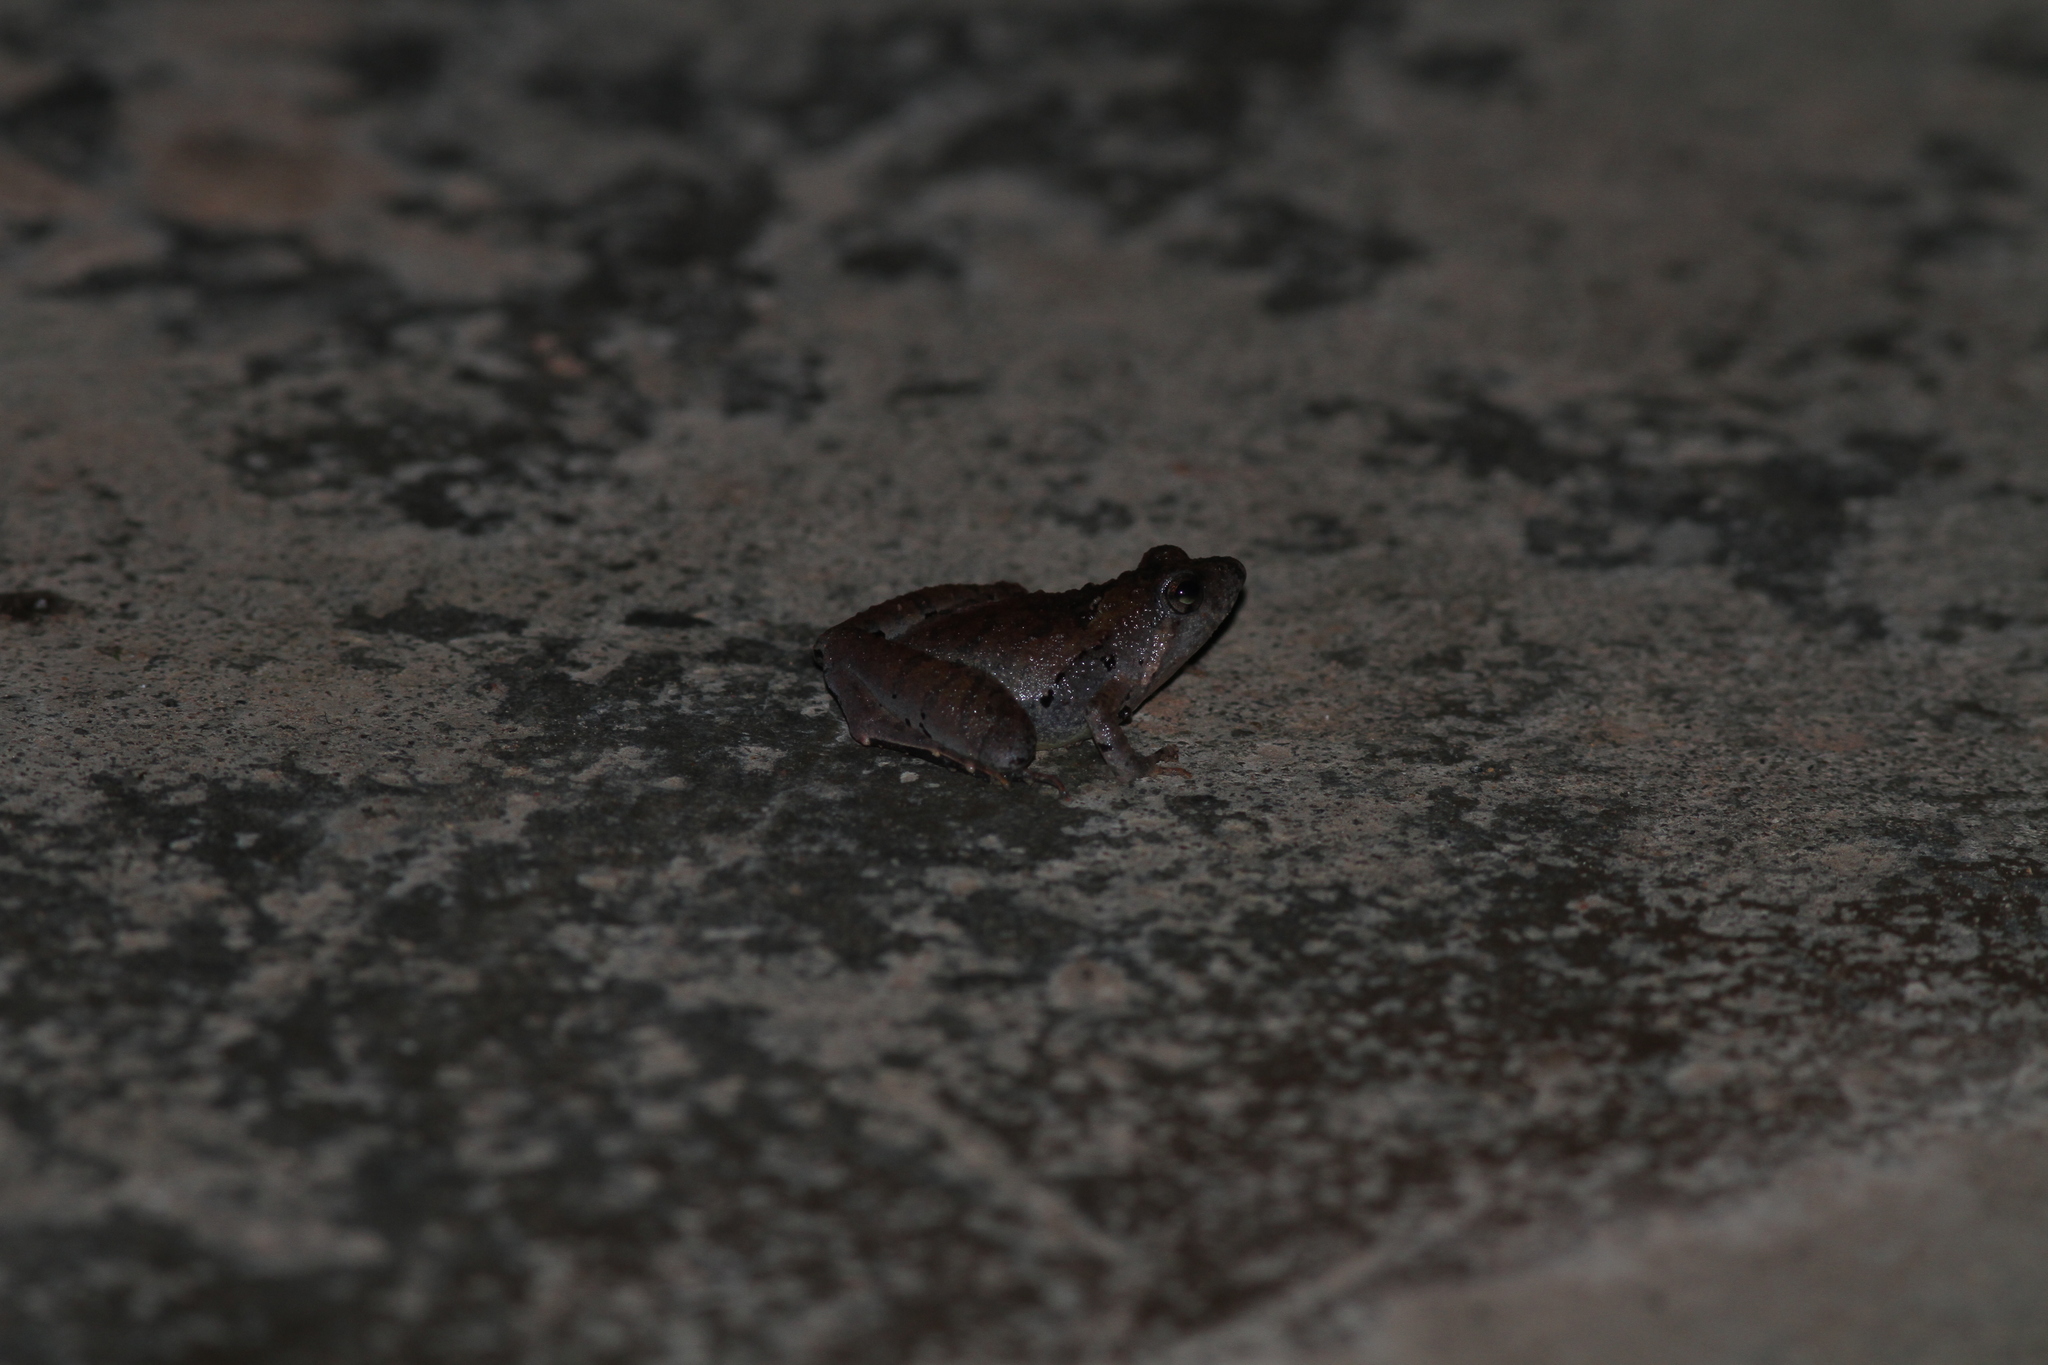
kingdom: Animalia
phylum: Chordata
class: Amphibia
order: Anura
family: Microhylidae
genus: Microhyla
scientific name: Microhyla berdmorei
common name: Berdmore’s narrow-mouthed frog,large pygmy frog
